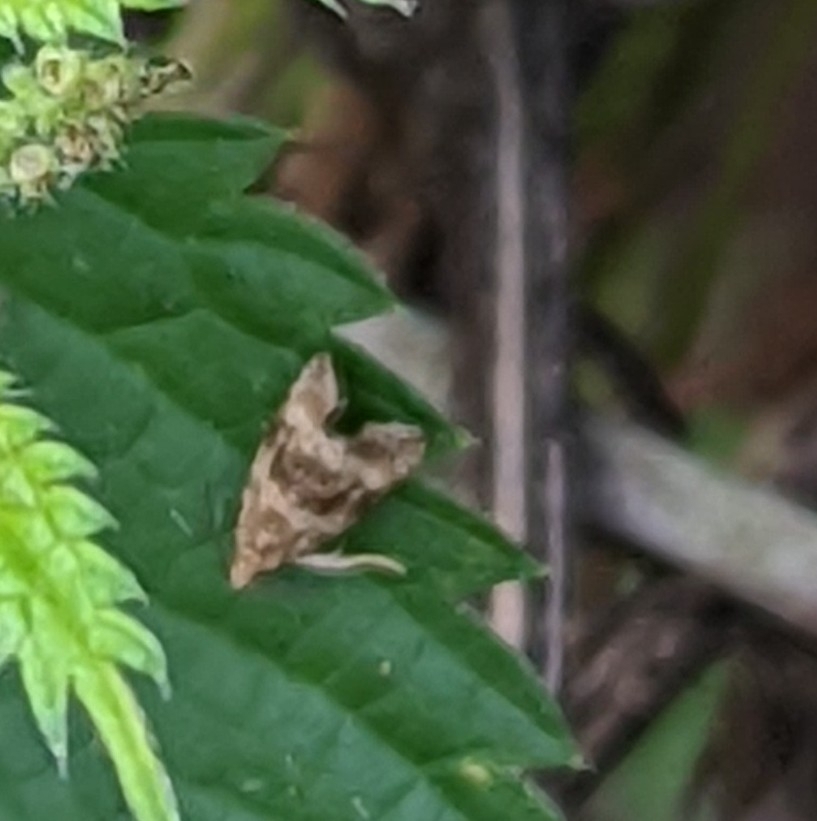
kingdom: Animalia
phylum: Arthropoda
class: Insecta
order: Lepidoptera
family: Tortricidae
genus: Syricoris
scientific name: Syricoris lacunana
